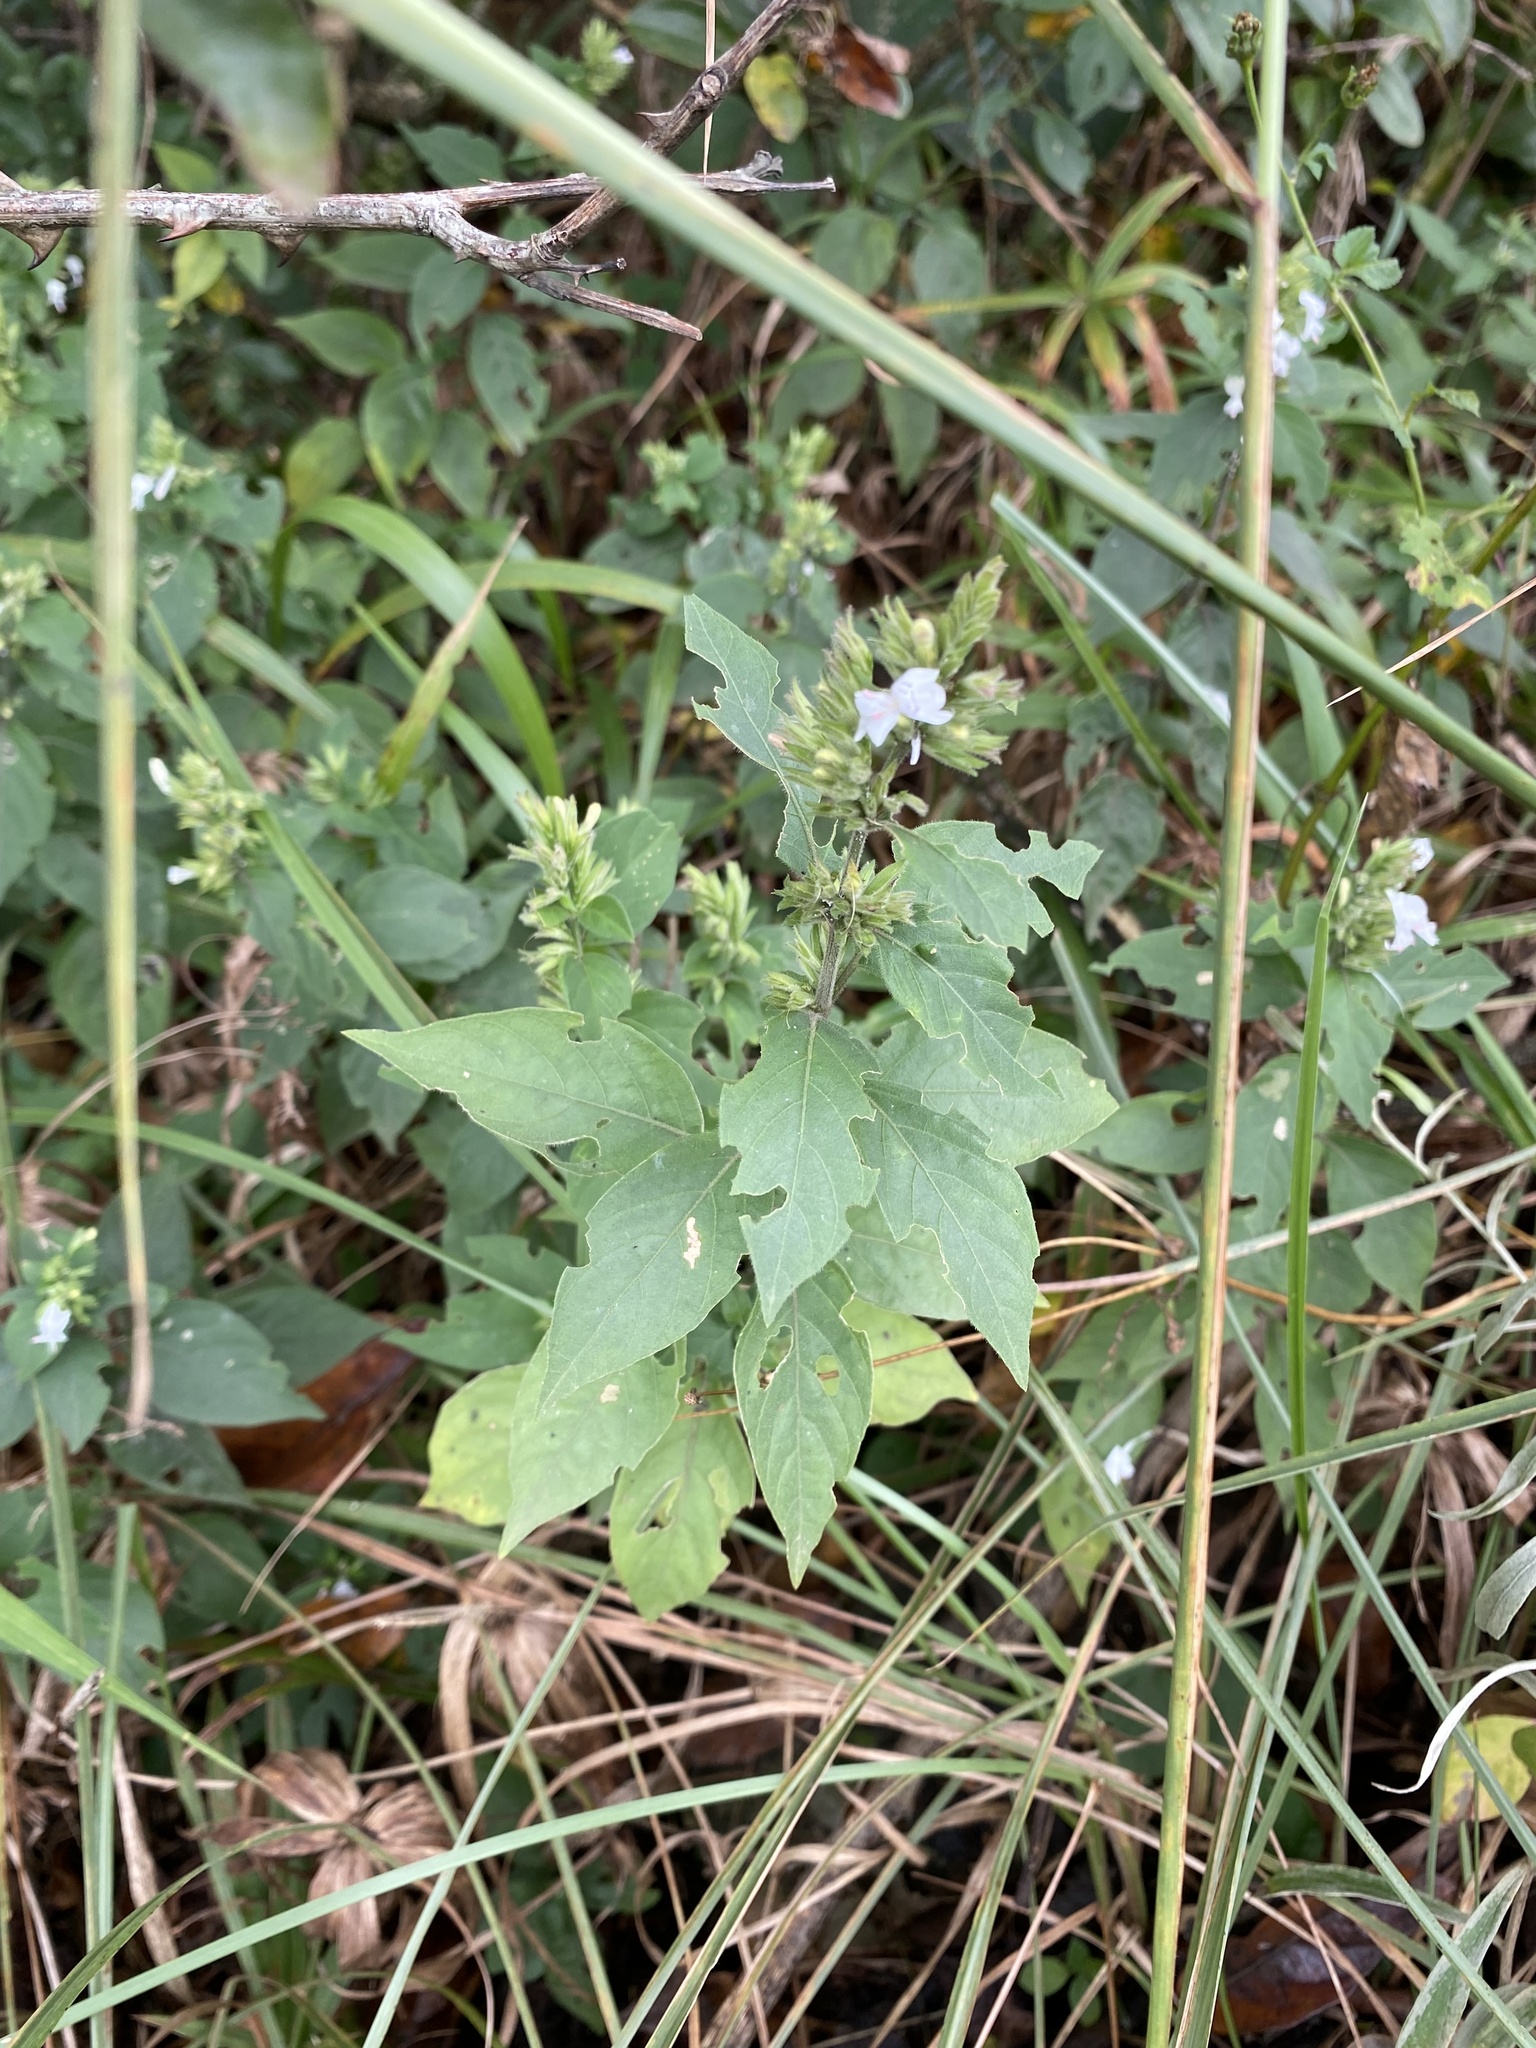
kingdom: Plantae
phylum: Tracheophyta
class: Magnoliopsida
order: Lamiales
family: Acanthaceae
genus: Hypoestes
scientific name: Hypoestes forskaolii
